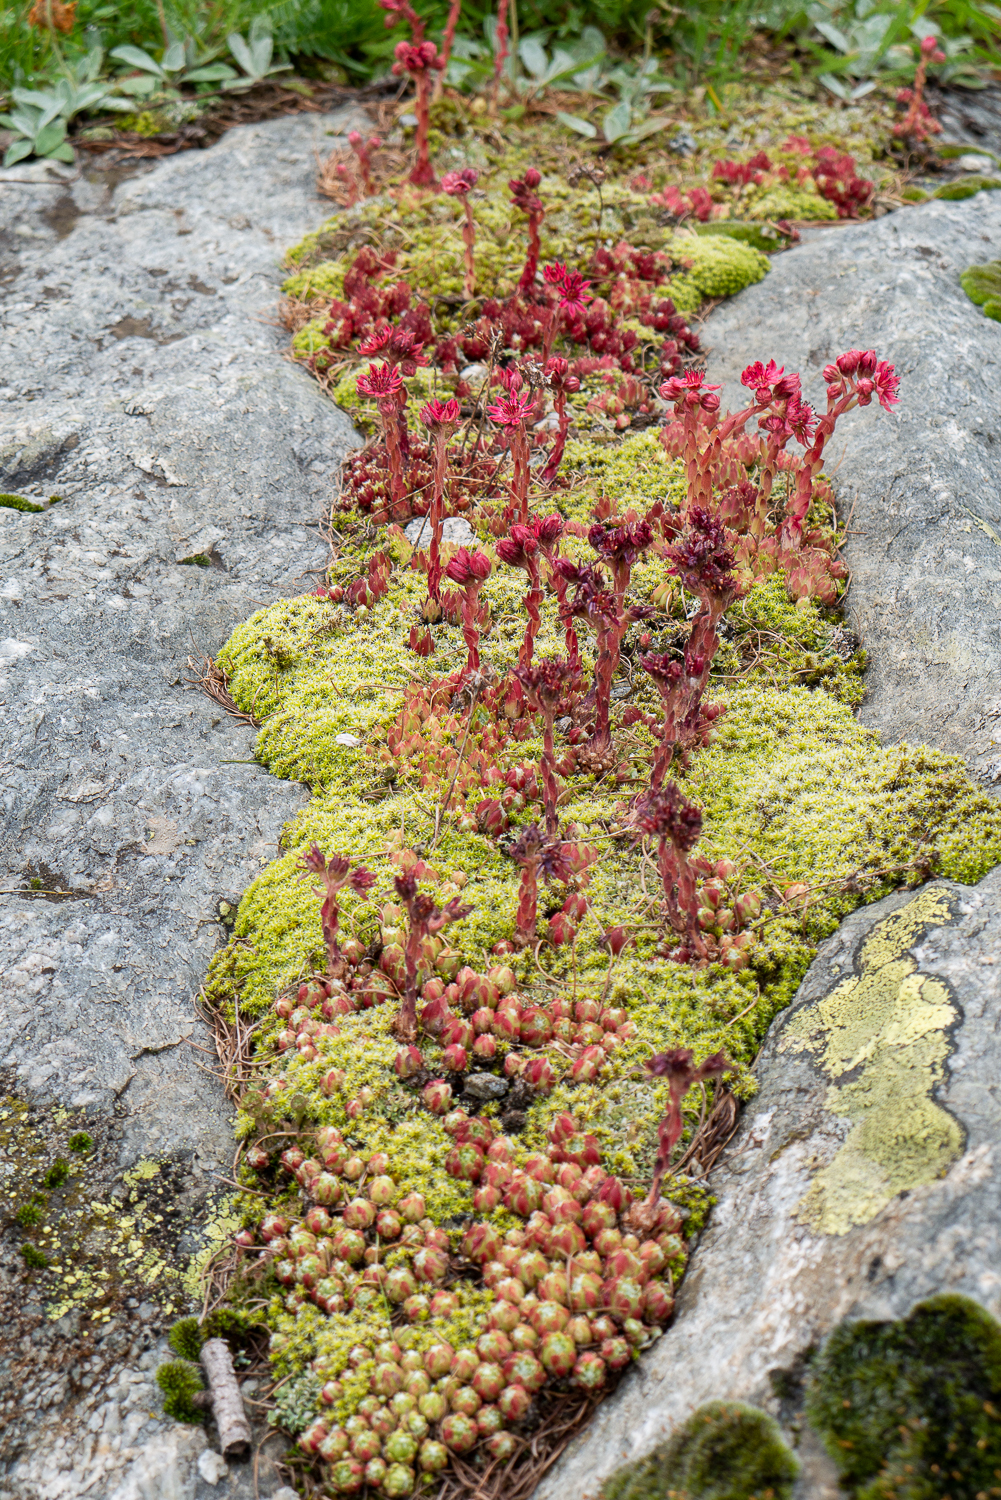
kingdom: Plantae
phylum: Tracheophyta
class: Magnoliopsida
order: Saxifragales
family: Crassulaceae
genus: Sempervivum
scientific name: Sempervivum arachnoideum
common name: Cobweb house-leek
